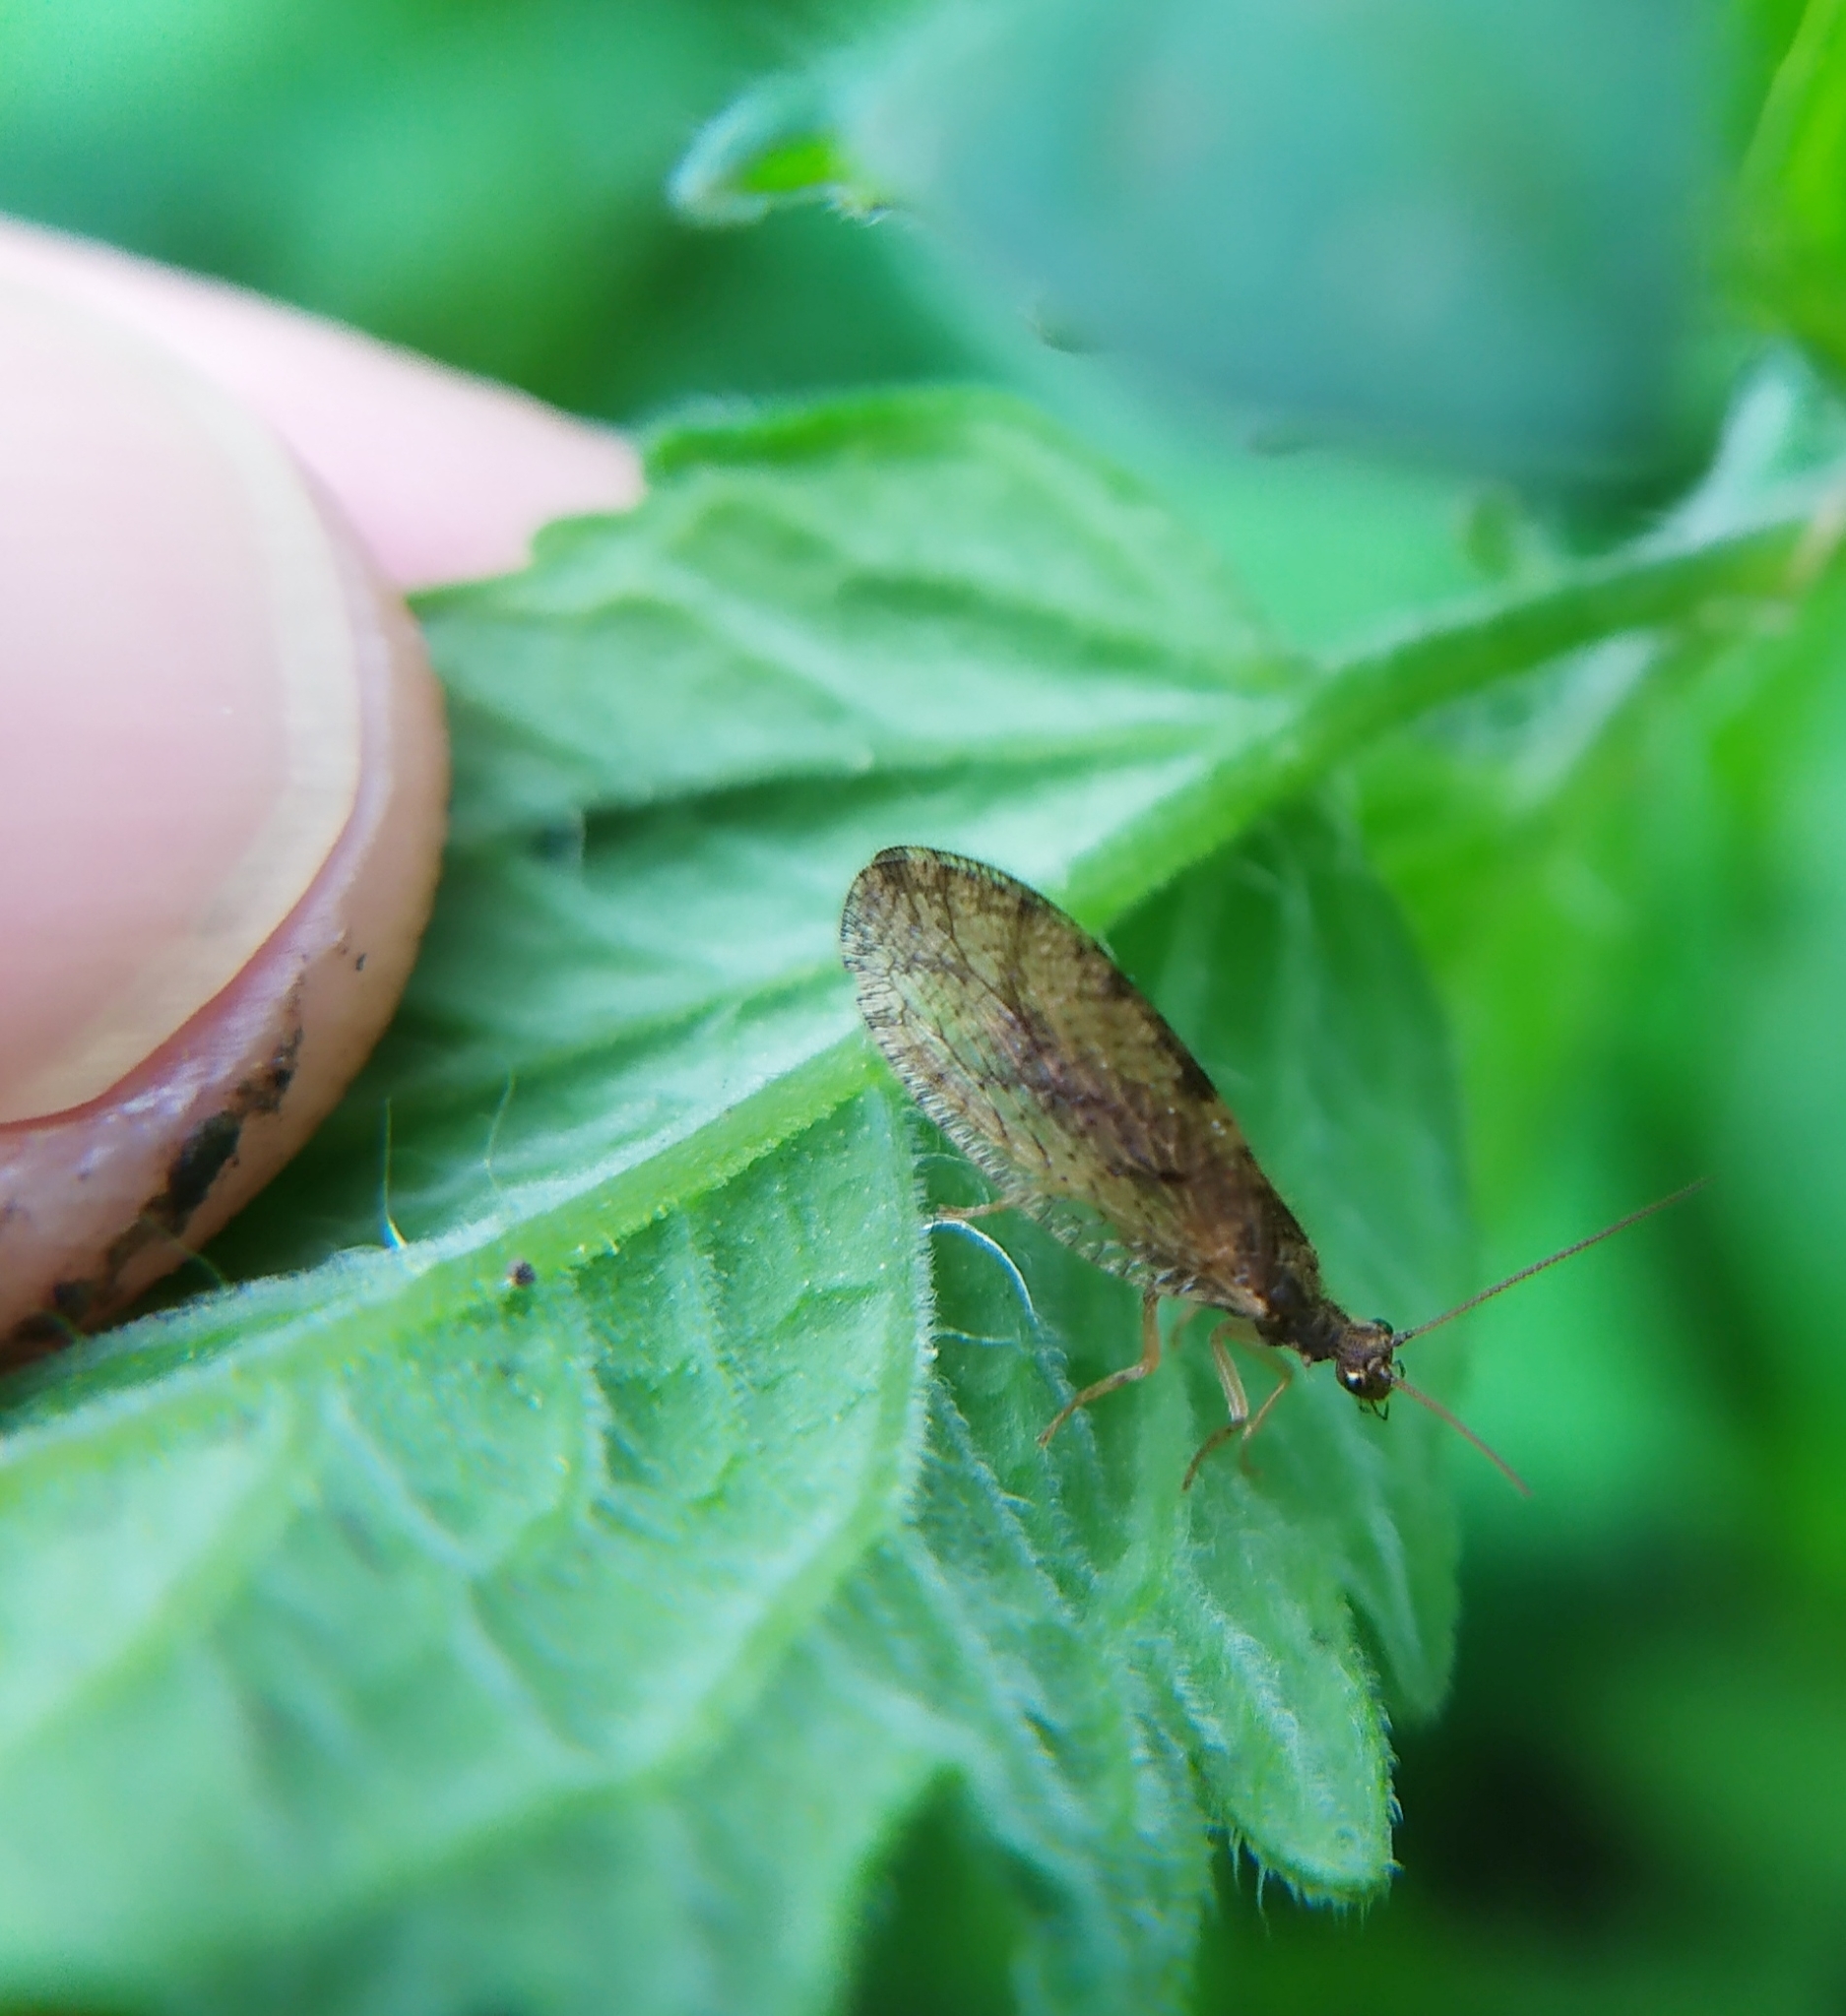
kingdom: Animalia
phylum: Arthropoda
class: Insecta
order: Neuroptera
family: Hemerobiidae
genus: Micromus
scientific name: Micromus angulatus
